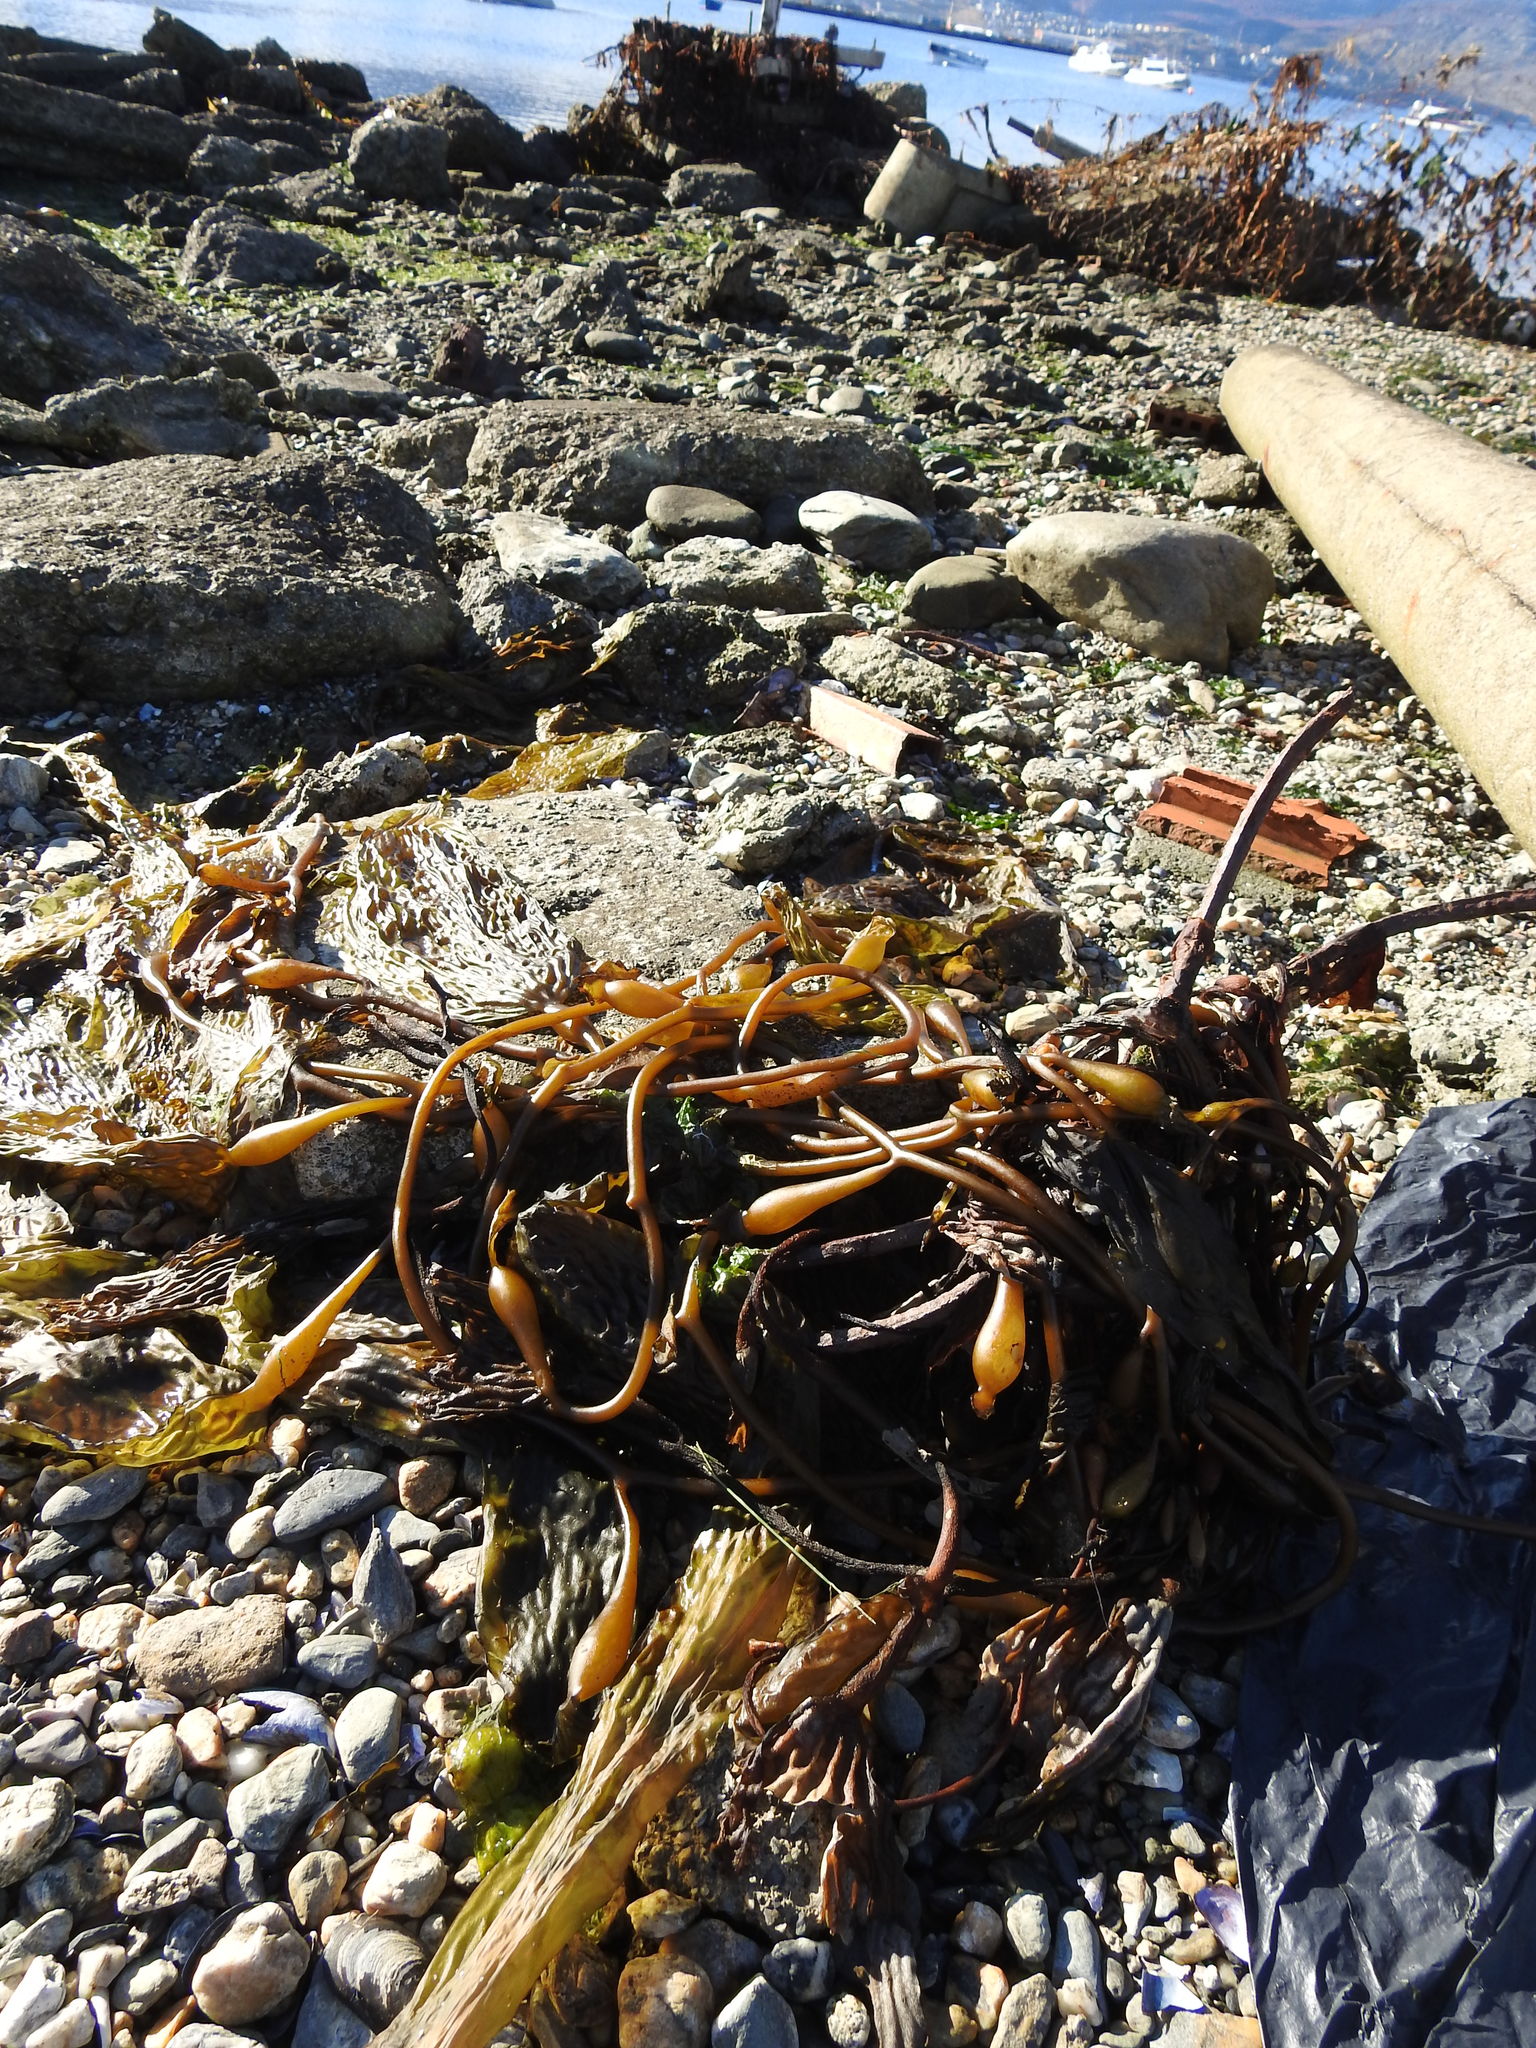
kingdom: Chromista
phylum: Ochrophyta
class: Phaeophyceae
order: Laminariales
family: Laminariaceae
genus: Macrocystis
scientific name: Macrocystis pyrifera
